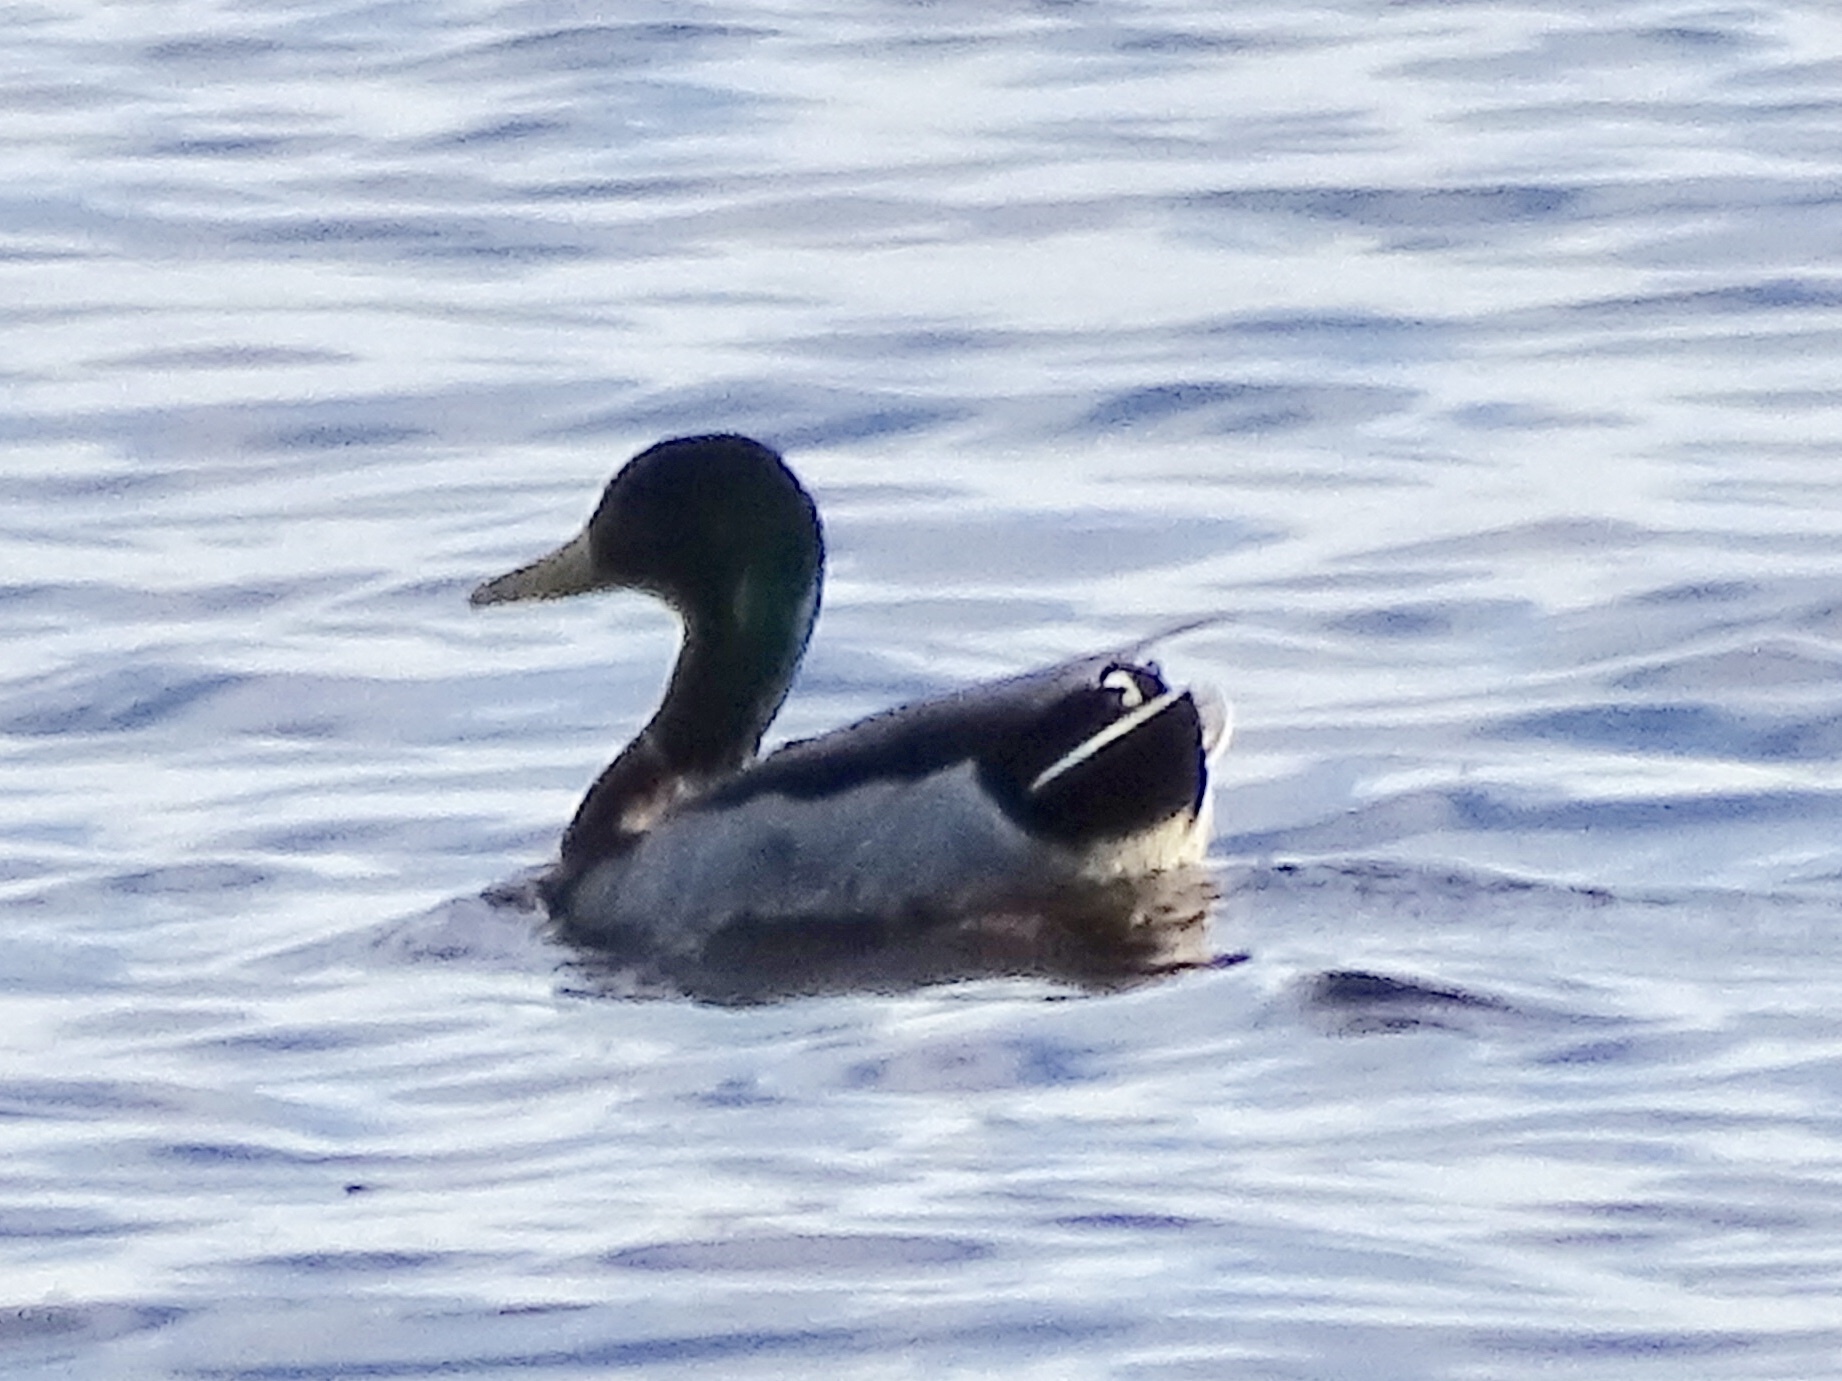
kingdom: Animalia
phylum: Chordata
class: Aves
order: Anseriformes
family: Anatidae
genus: Anas
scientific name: Anas platyrhynchos
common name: Mallard
